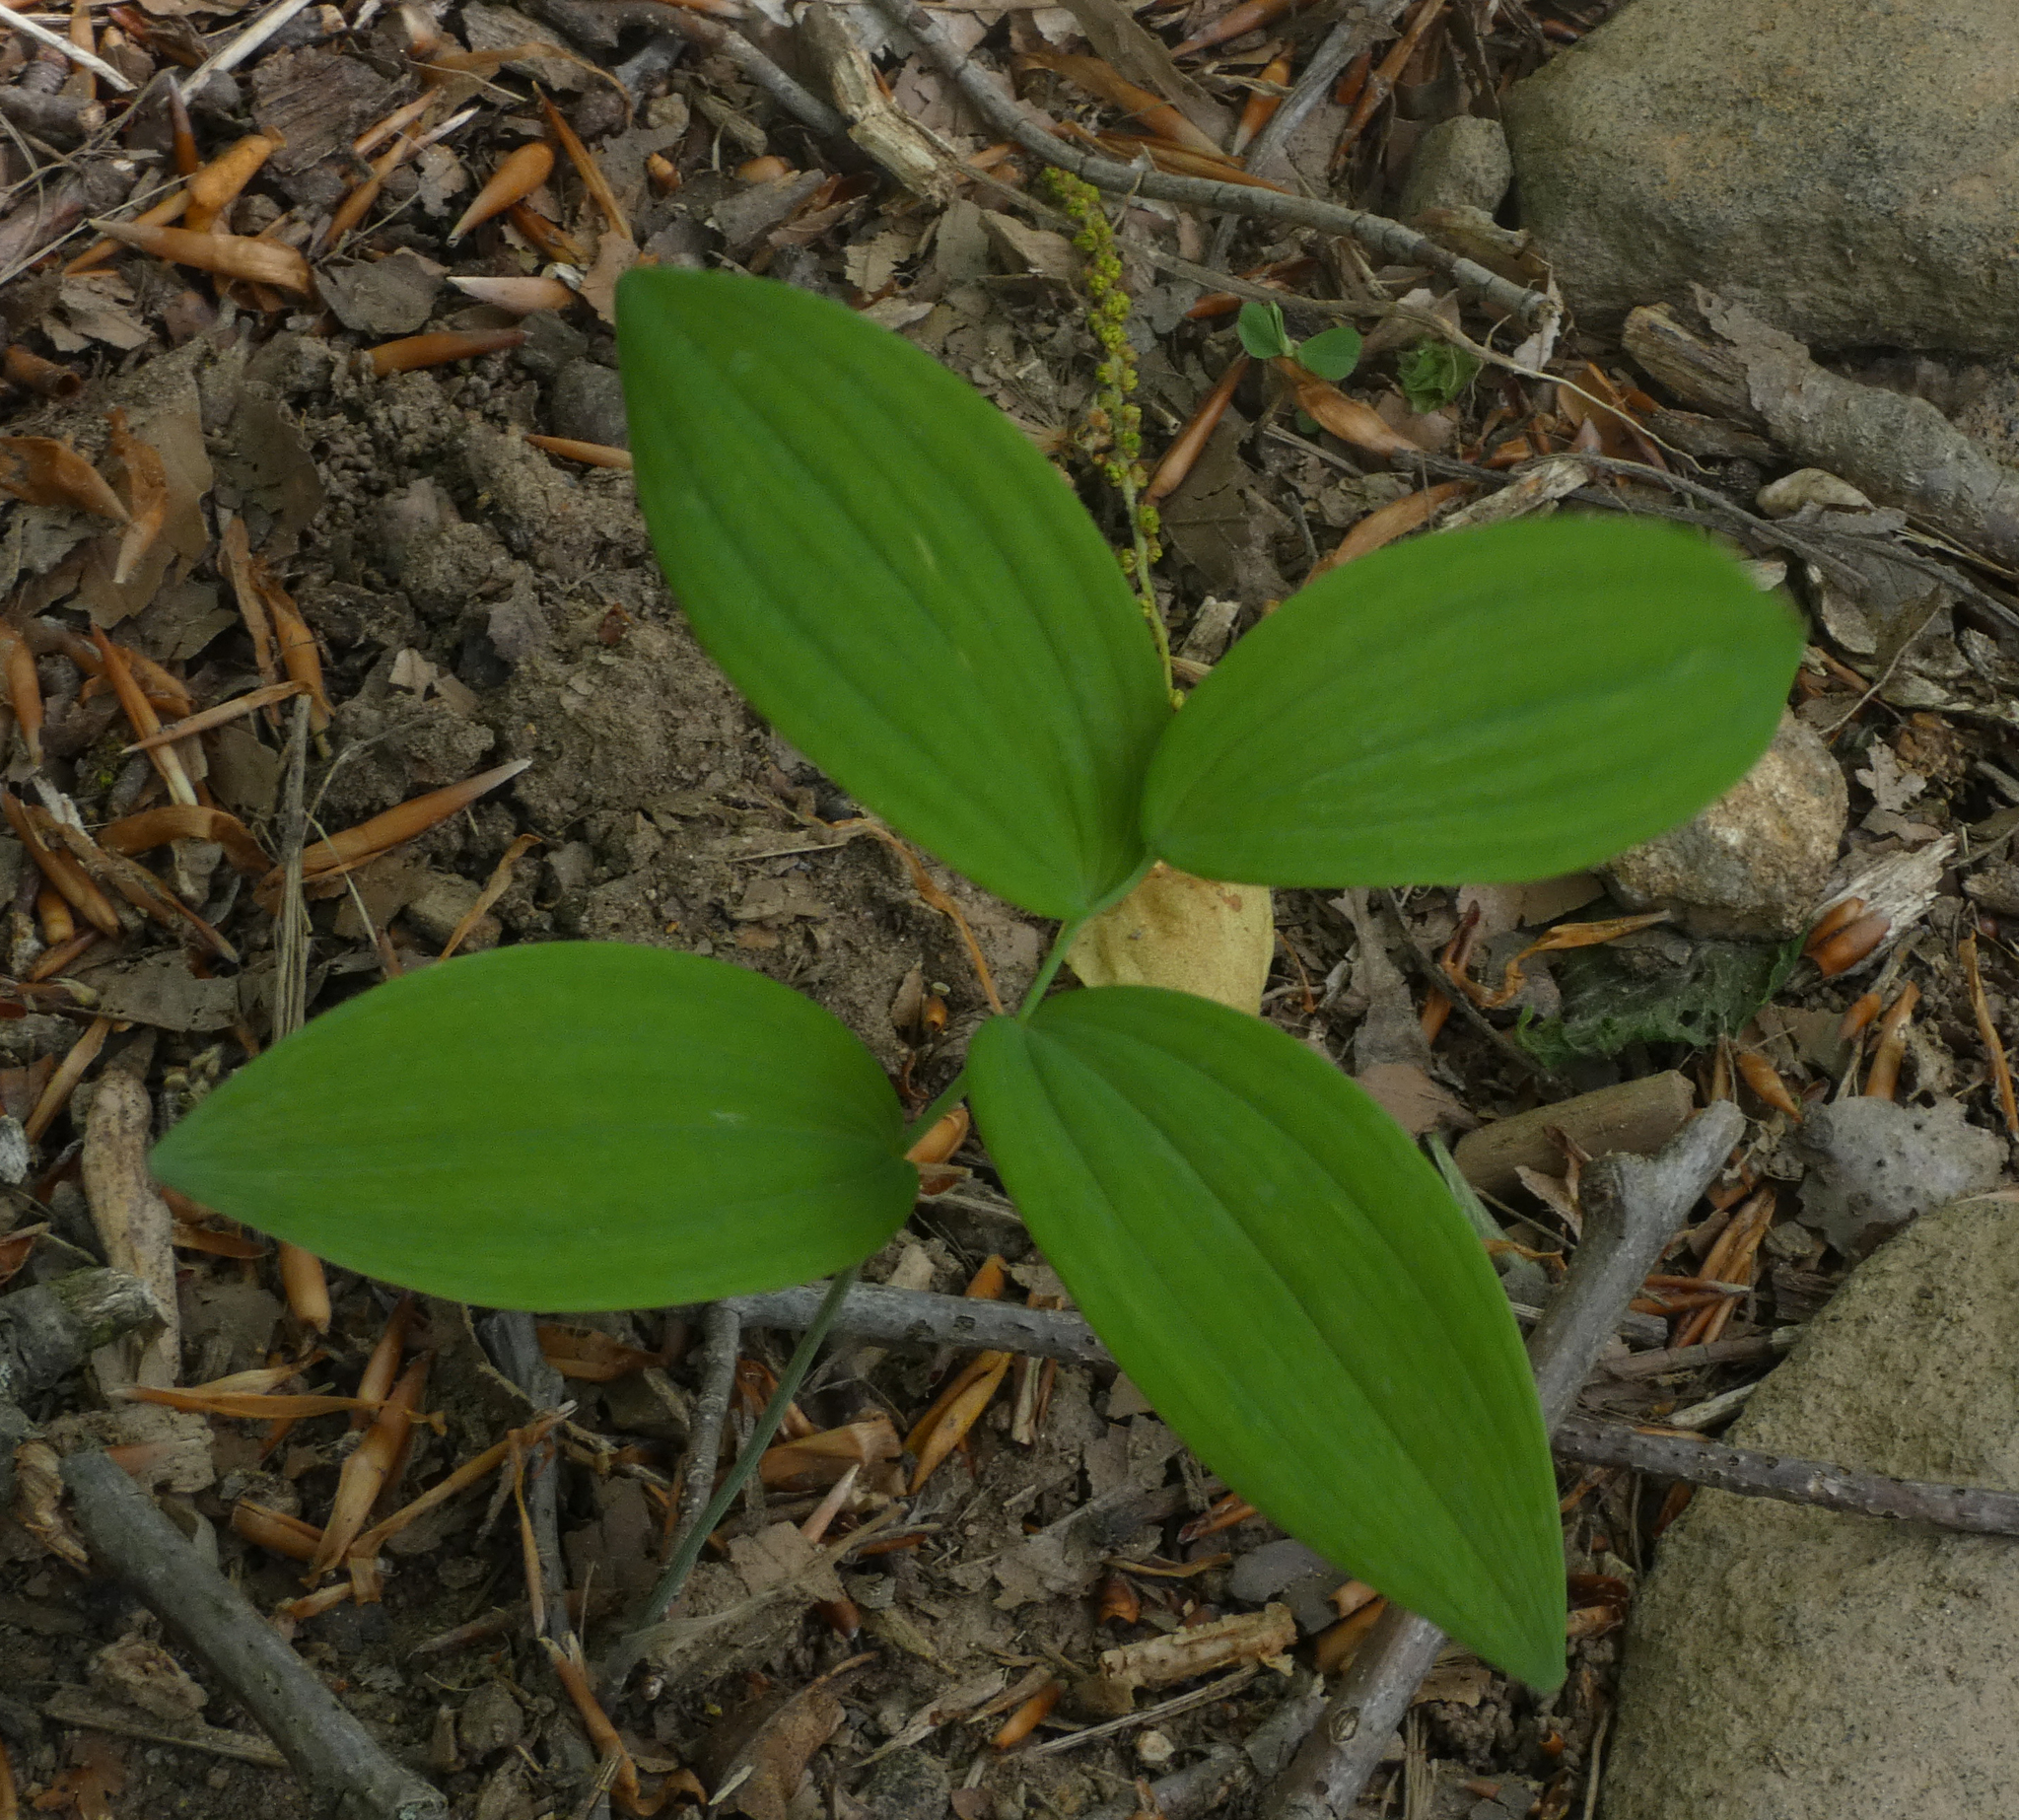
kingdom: Plantae
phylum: Tracheophyta
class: Liliopsida
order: Asparagales
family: Asparagaceae
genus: Polygonatum
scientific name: Polygonatum
